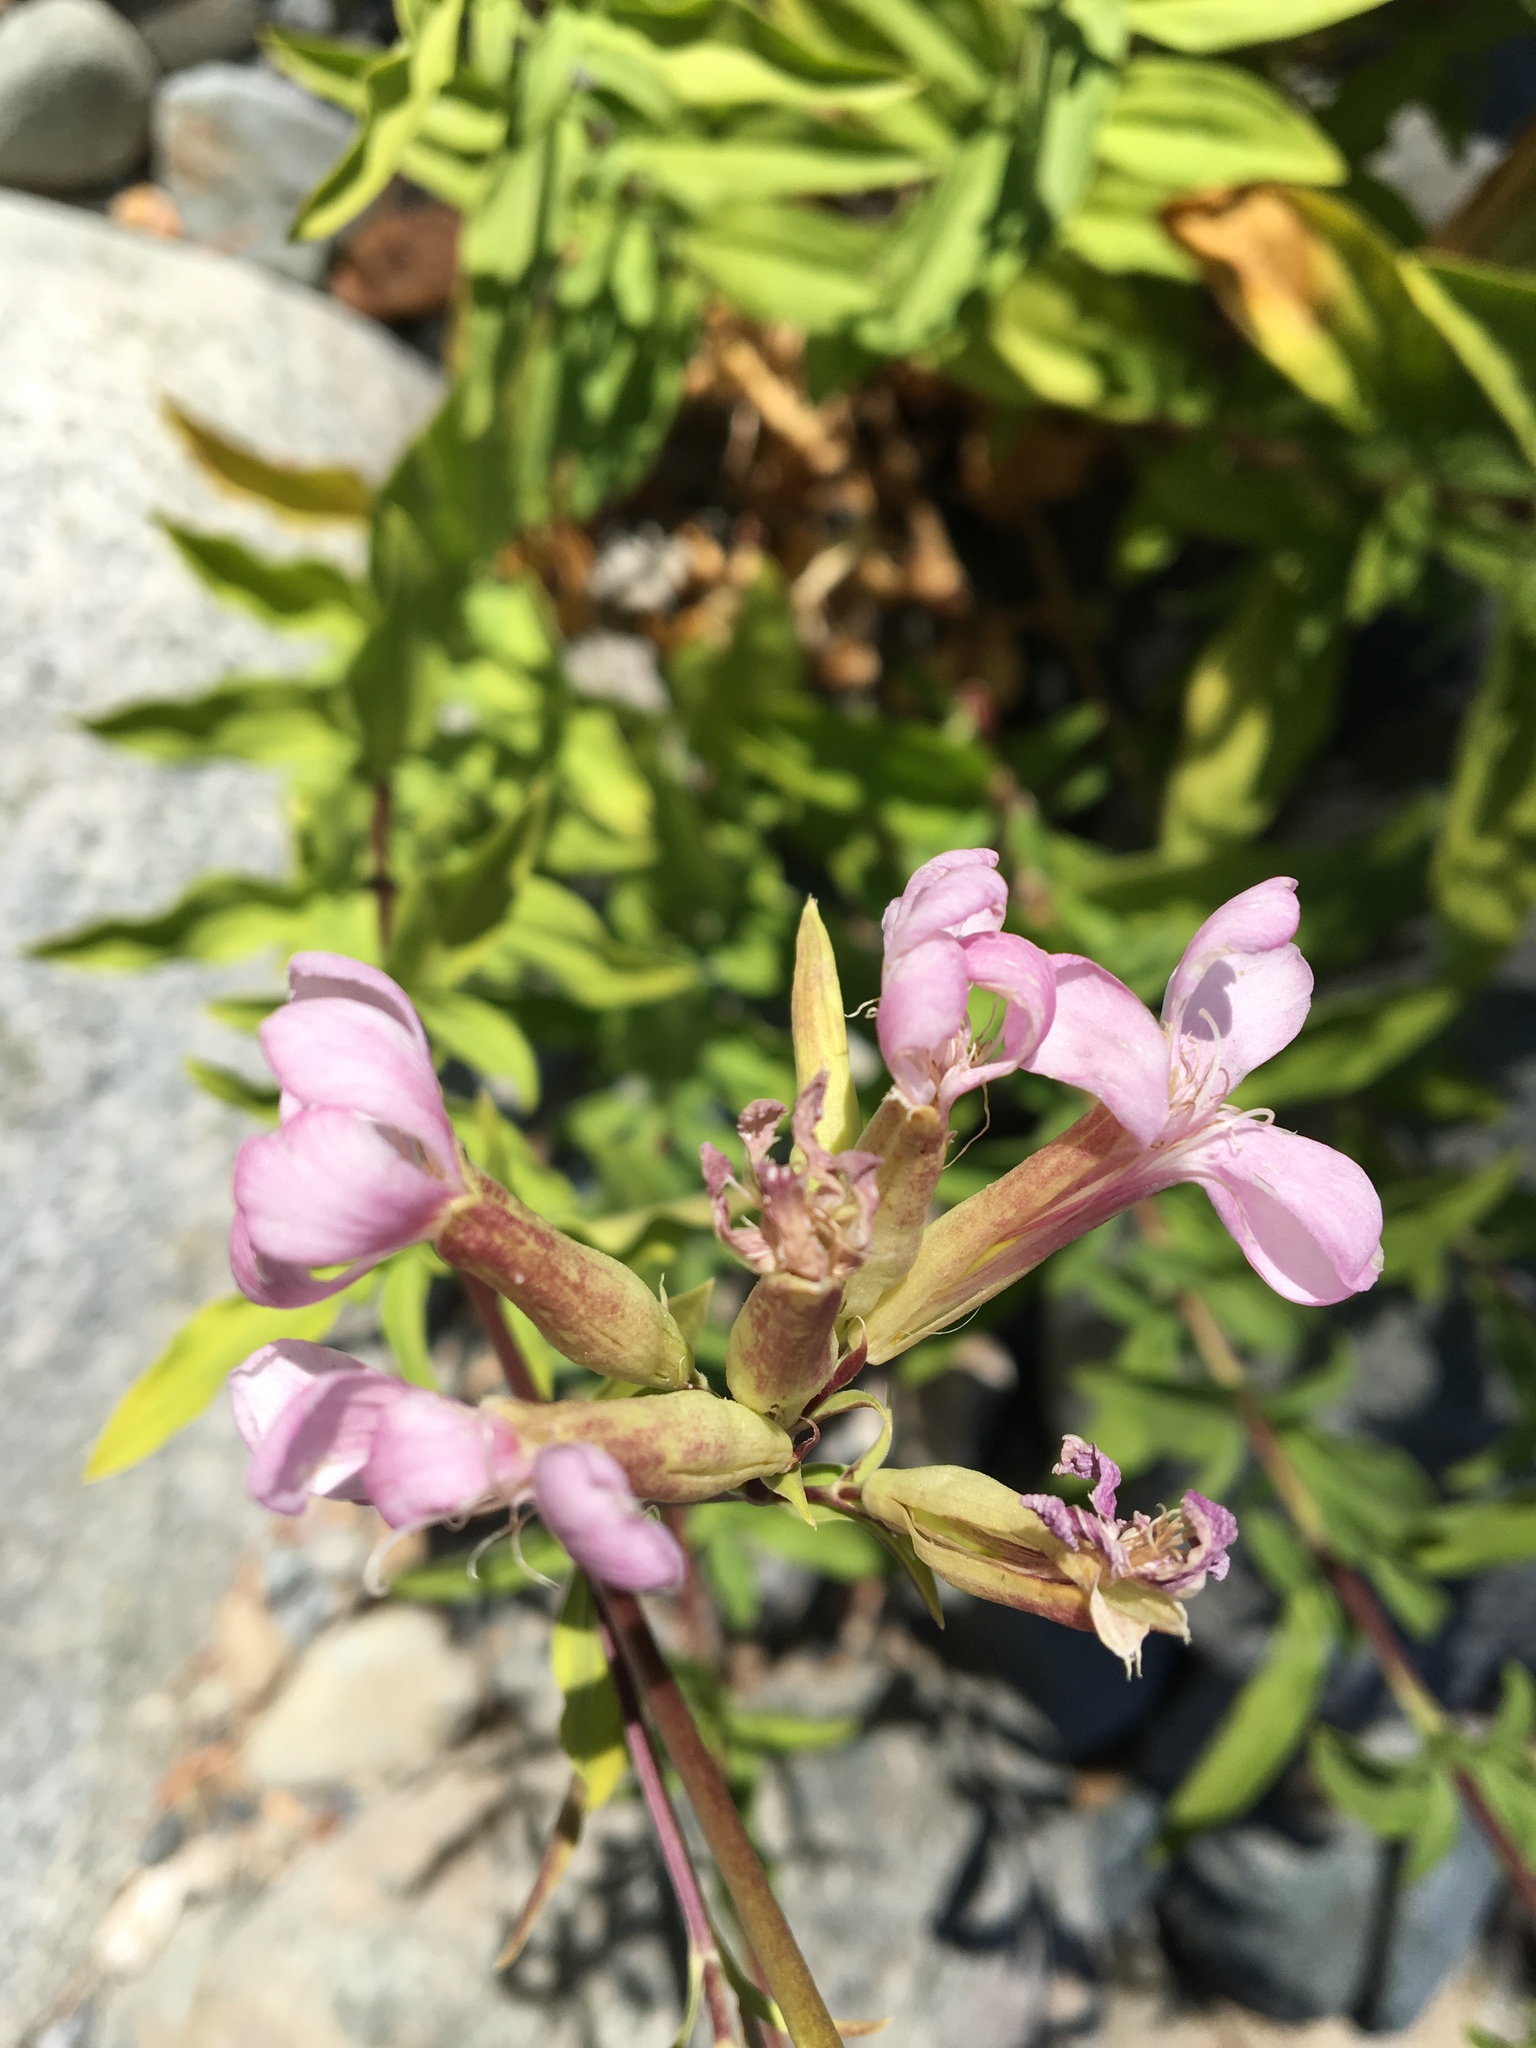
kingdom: Plantae
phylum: Tracheophyta
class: Magnoliopsida
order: Caryophyllales
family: Caryophyllaceae
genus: Saponaria
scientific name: Saponaria officinalis
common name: Soapwort
